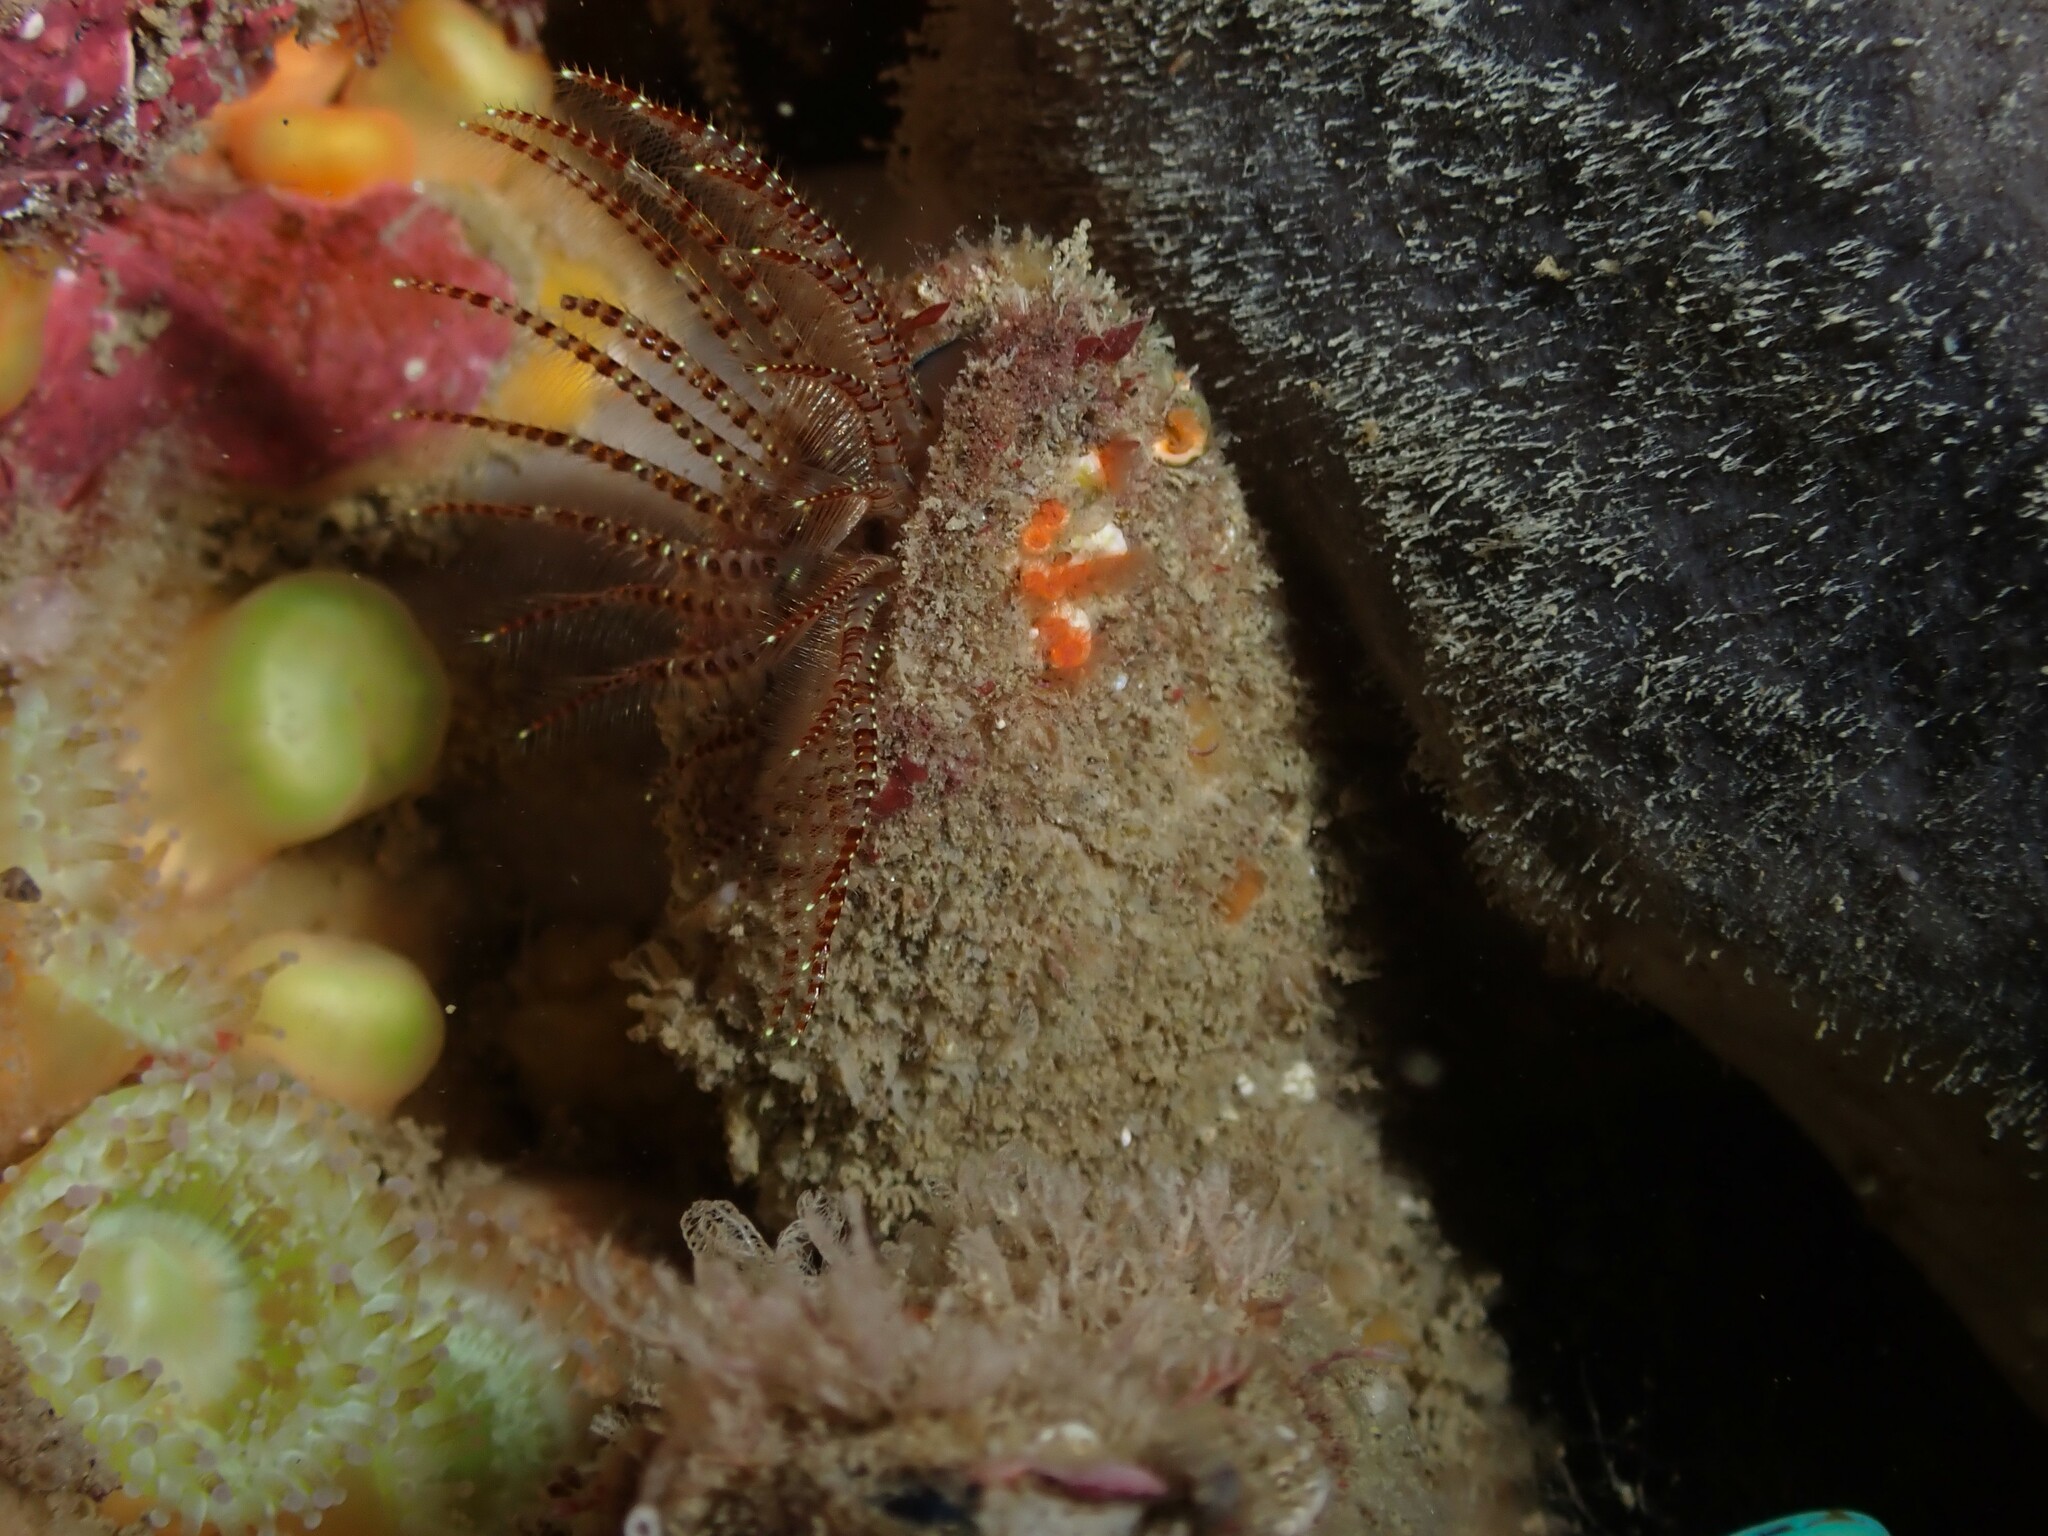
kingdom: Animalia
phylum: Arthropoda
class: Maxillopoda
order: Pedunculata
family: Calanticidae
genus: Calantica
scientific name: Calantica villosa
